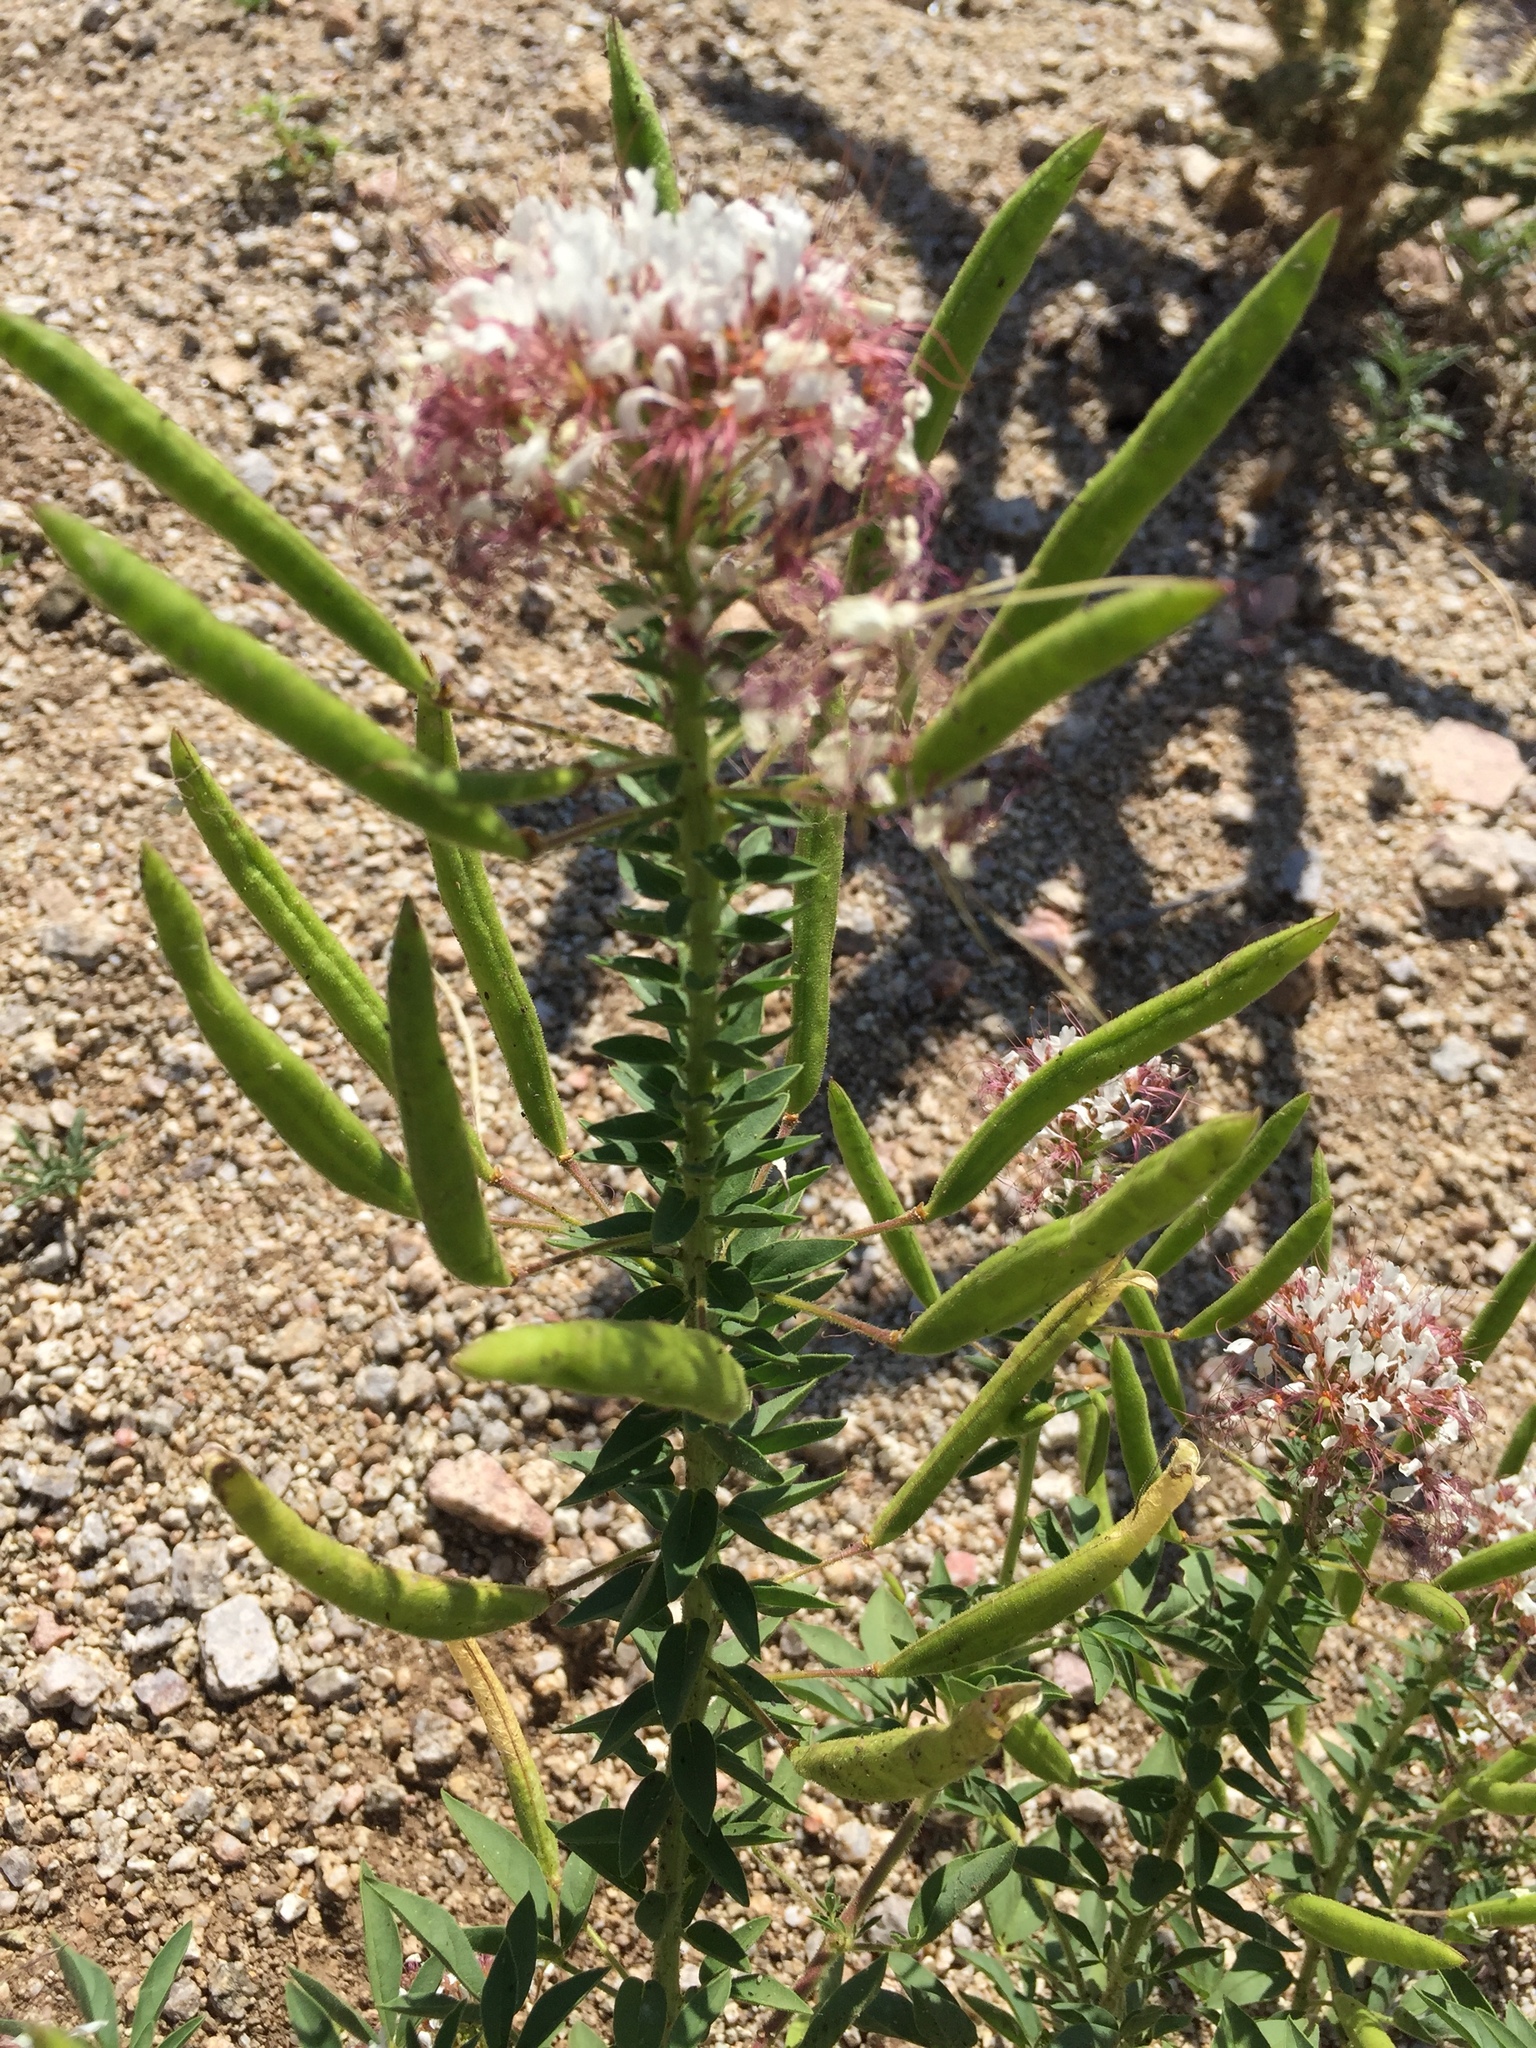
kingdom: Plantae
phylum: Tracheophyta
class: Magnoliopsida
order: Brassicales
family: Cleomaceae
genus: Polanisia
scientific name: Polanisia dodecandra
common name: Clammyweed
